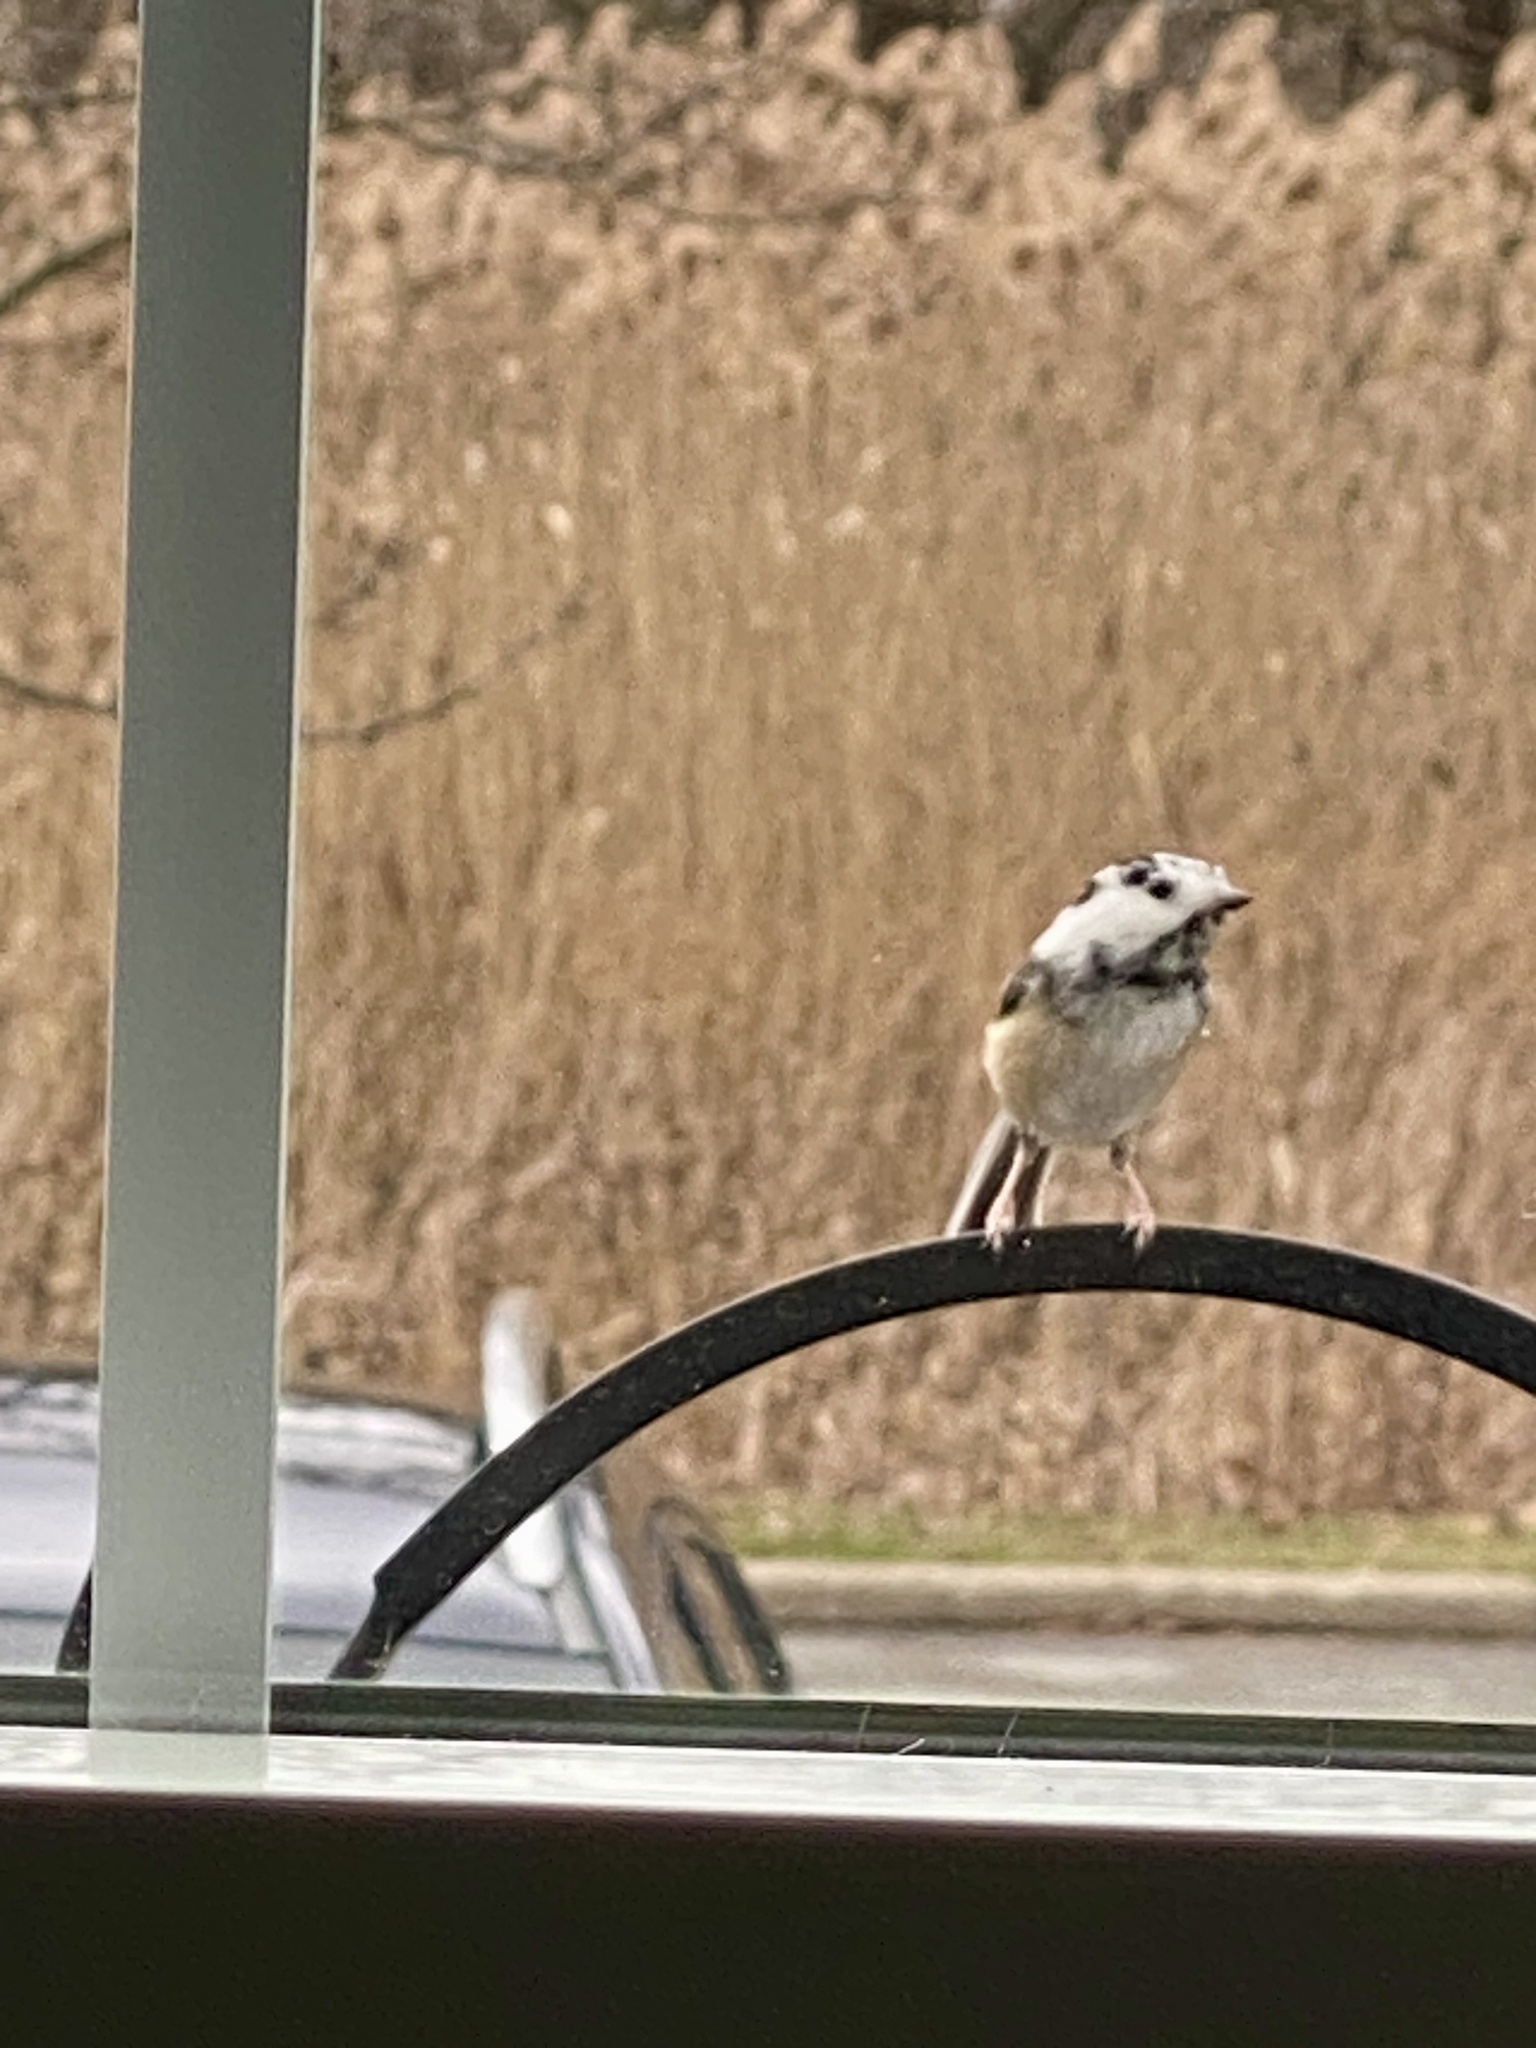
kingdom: Animalia
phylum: Chordata
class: Aves
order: Passeriformes
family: Paridae
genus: Poecile
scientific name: Poecile atricapillus
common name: Black-capped chickadee
